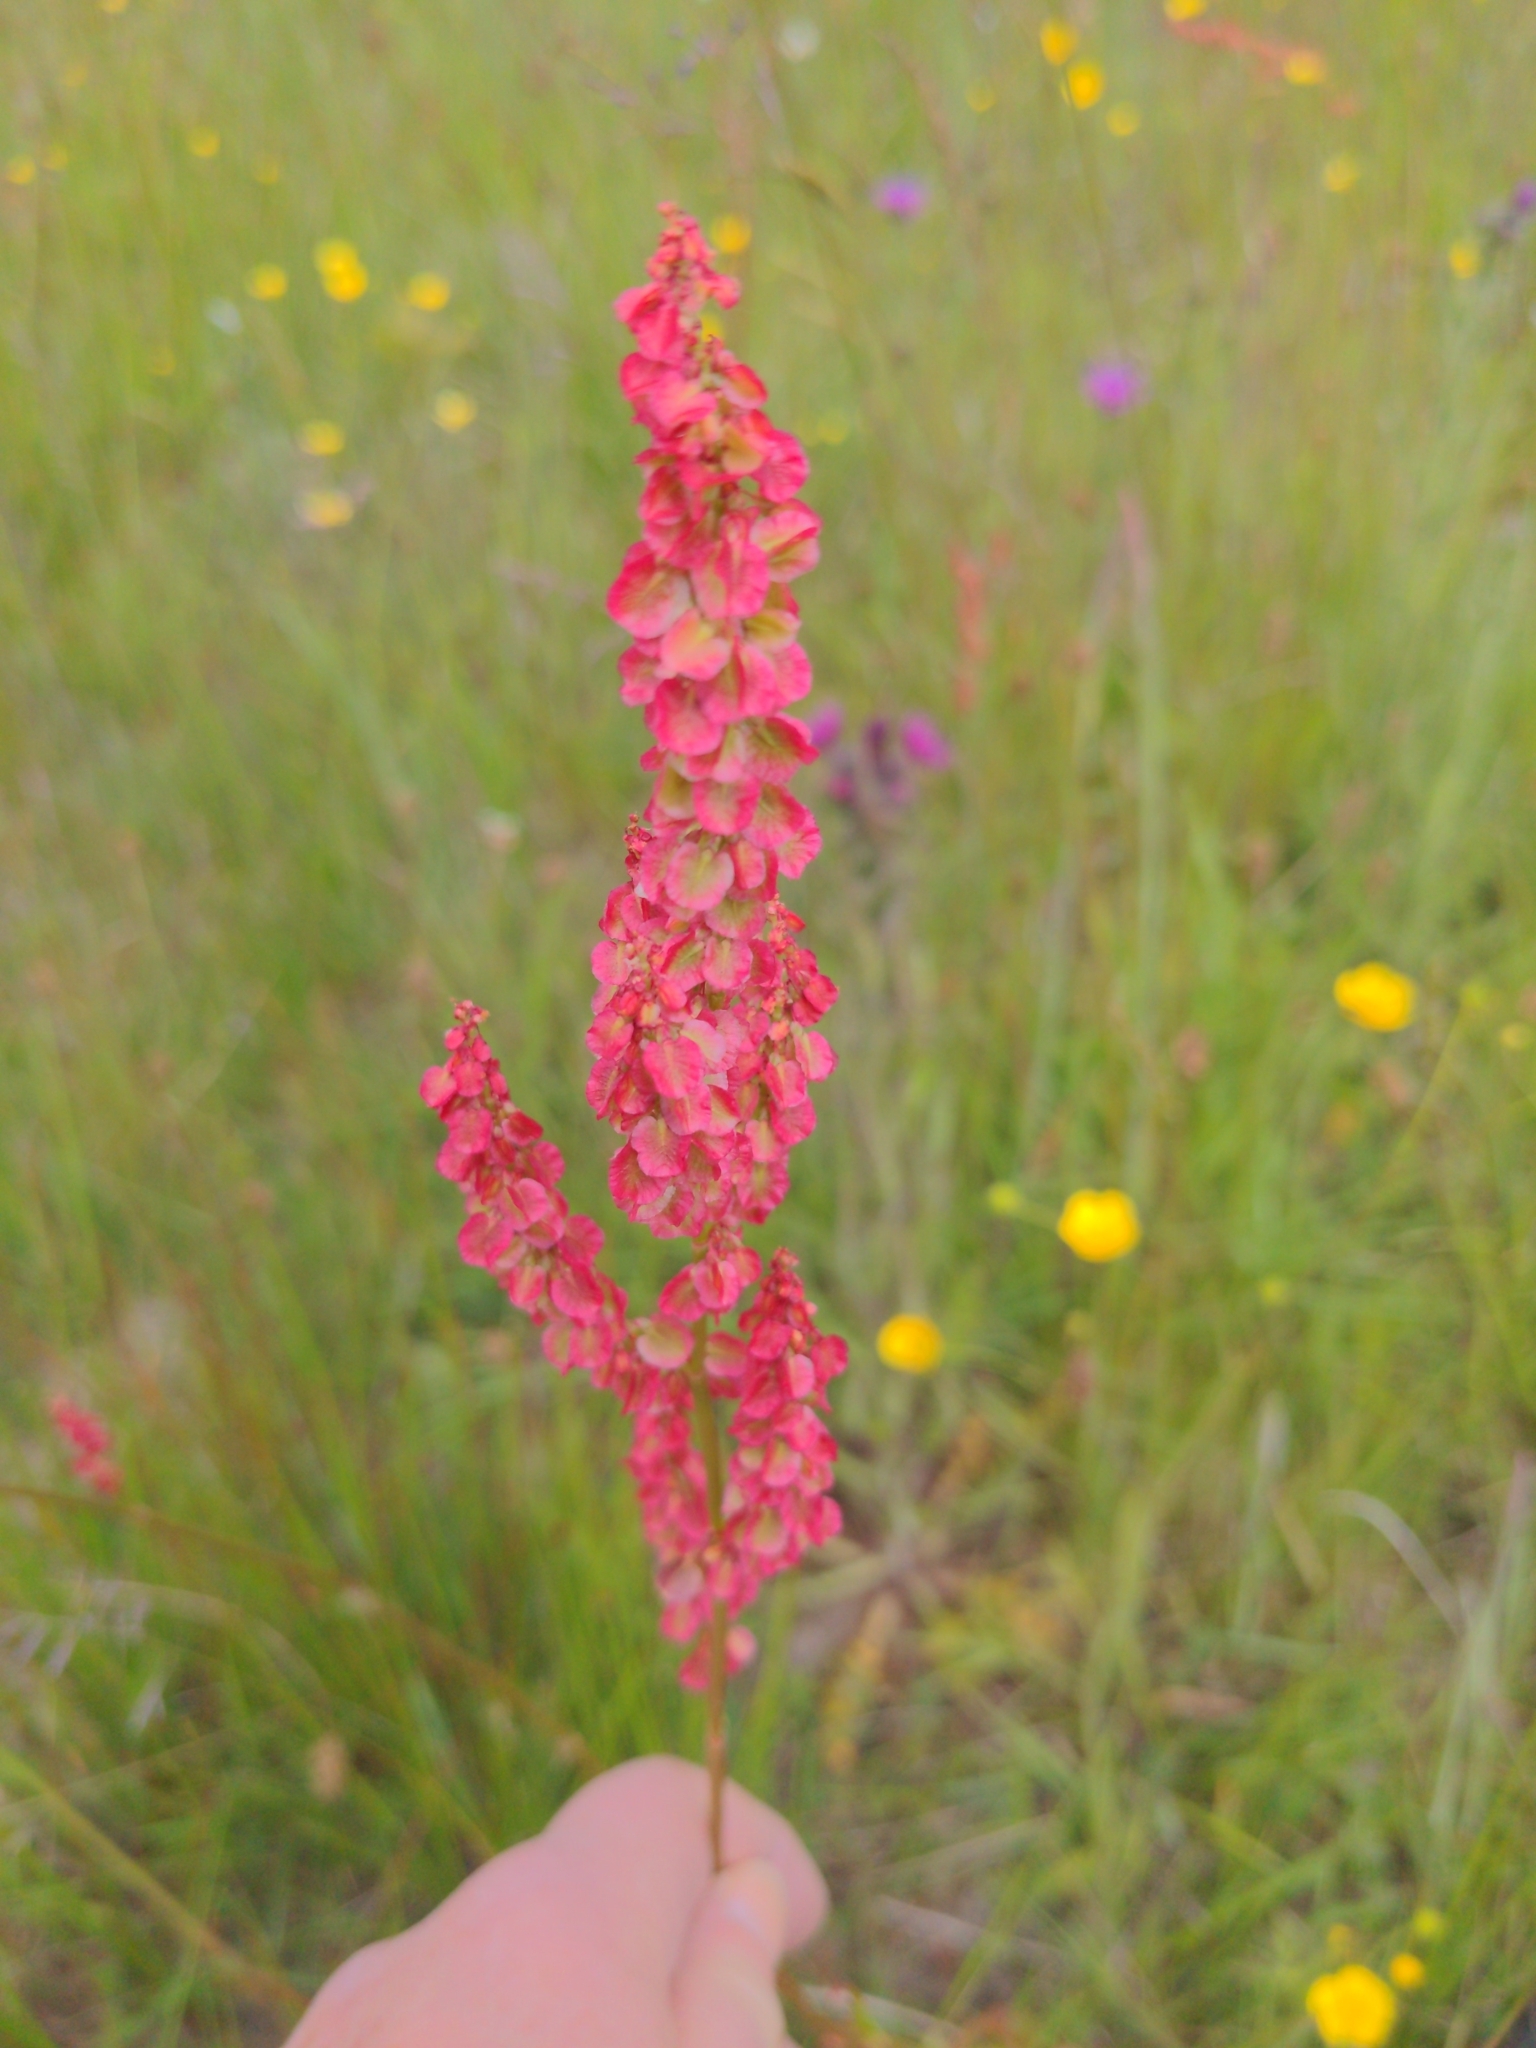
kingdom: Plantae
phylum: Tracheophyta
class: Magnoliopsida
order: Caryophyllales
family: Polygonaceae
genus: Rumex
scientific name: Rumex acetosa
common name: Garden sorrel
